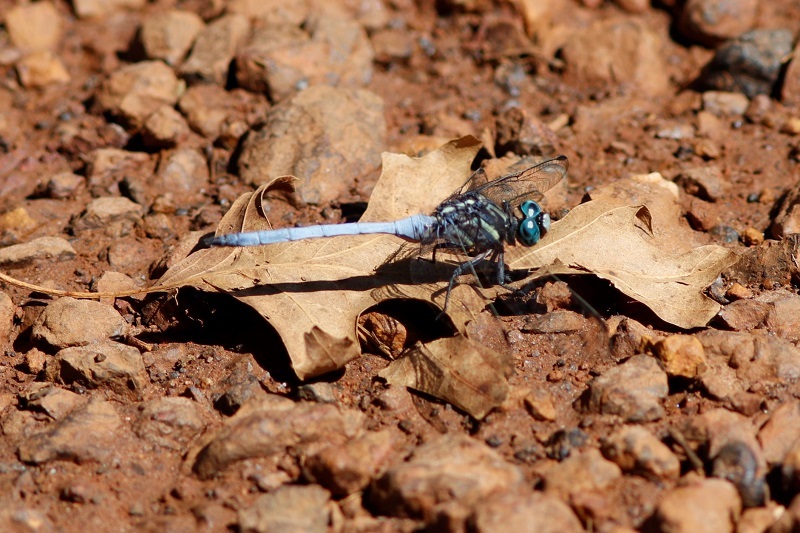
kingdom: Animalia
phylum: Arthropoda
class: Insecta
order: Odonata
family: Libellulidae
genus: Orthetrum
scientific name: Orthetrum julia
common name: Julia skimmer
